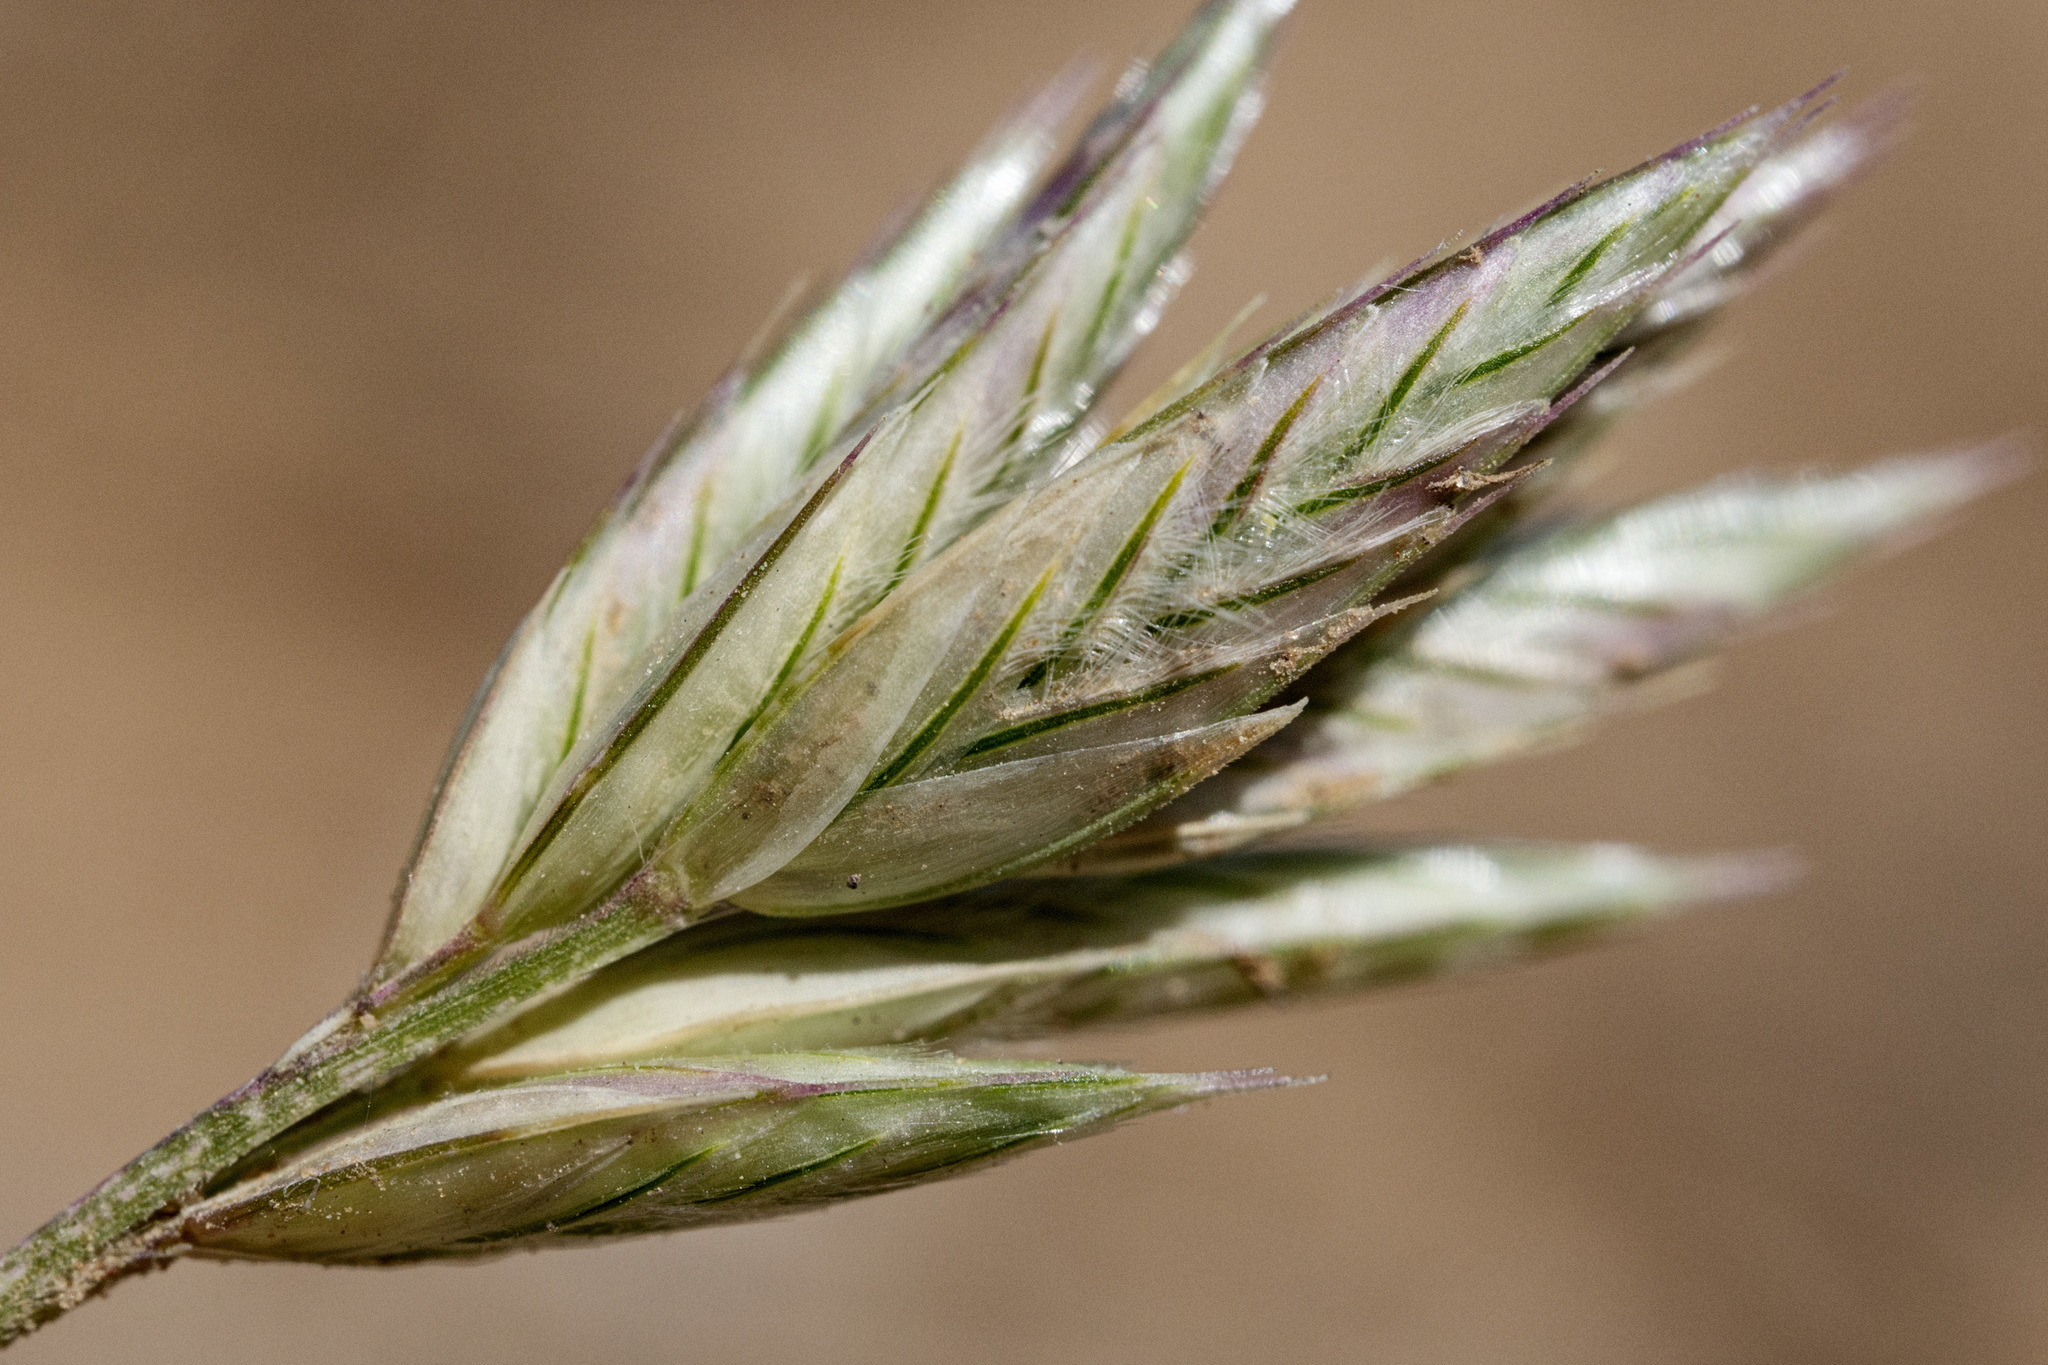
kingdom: Plantae
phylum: Tracheophyta
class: Liliopsida
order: Poales
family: Poaceae
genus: Erioneuron
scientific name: Erioneuron pilosum
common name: Hairy woolly grass
